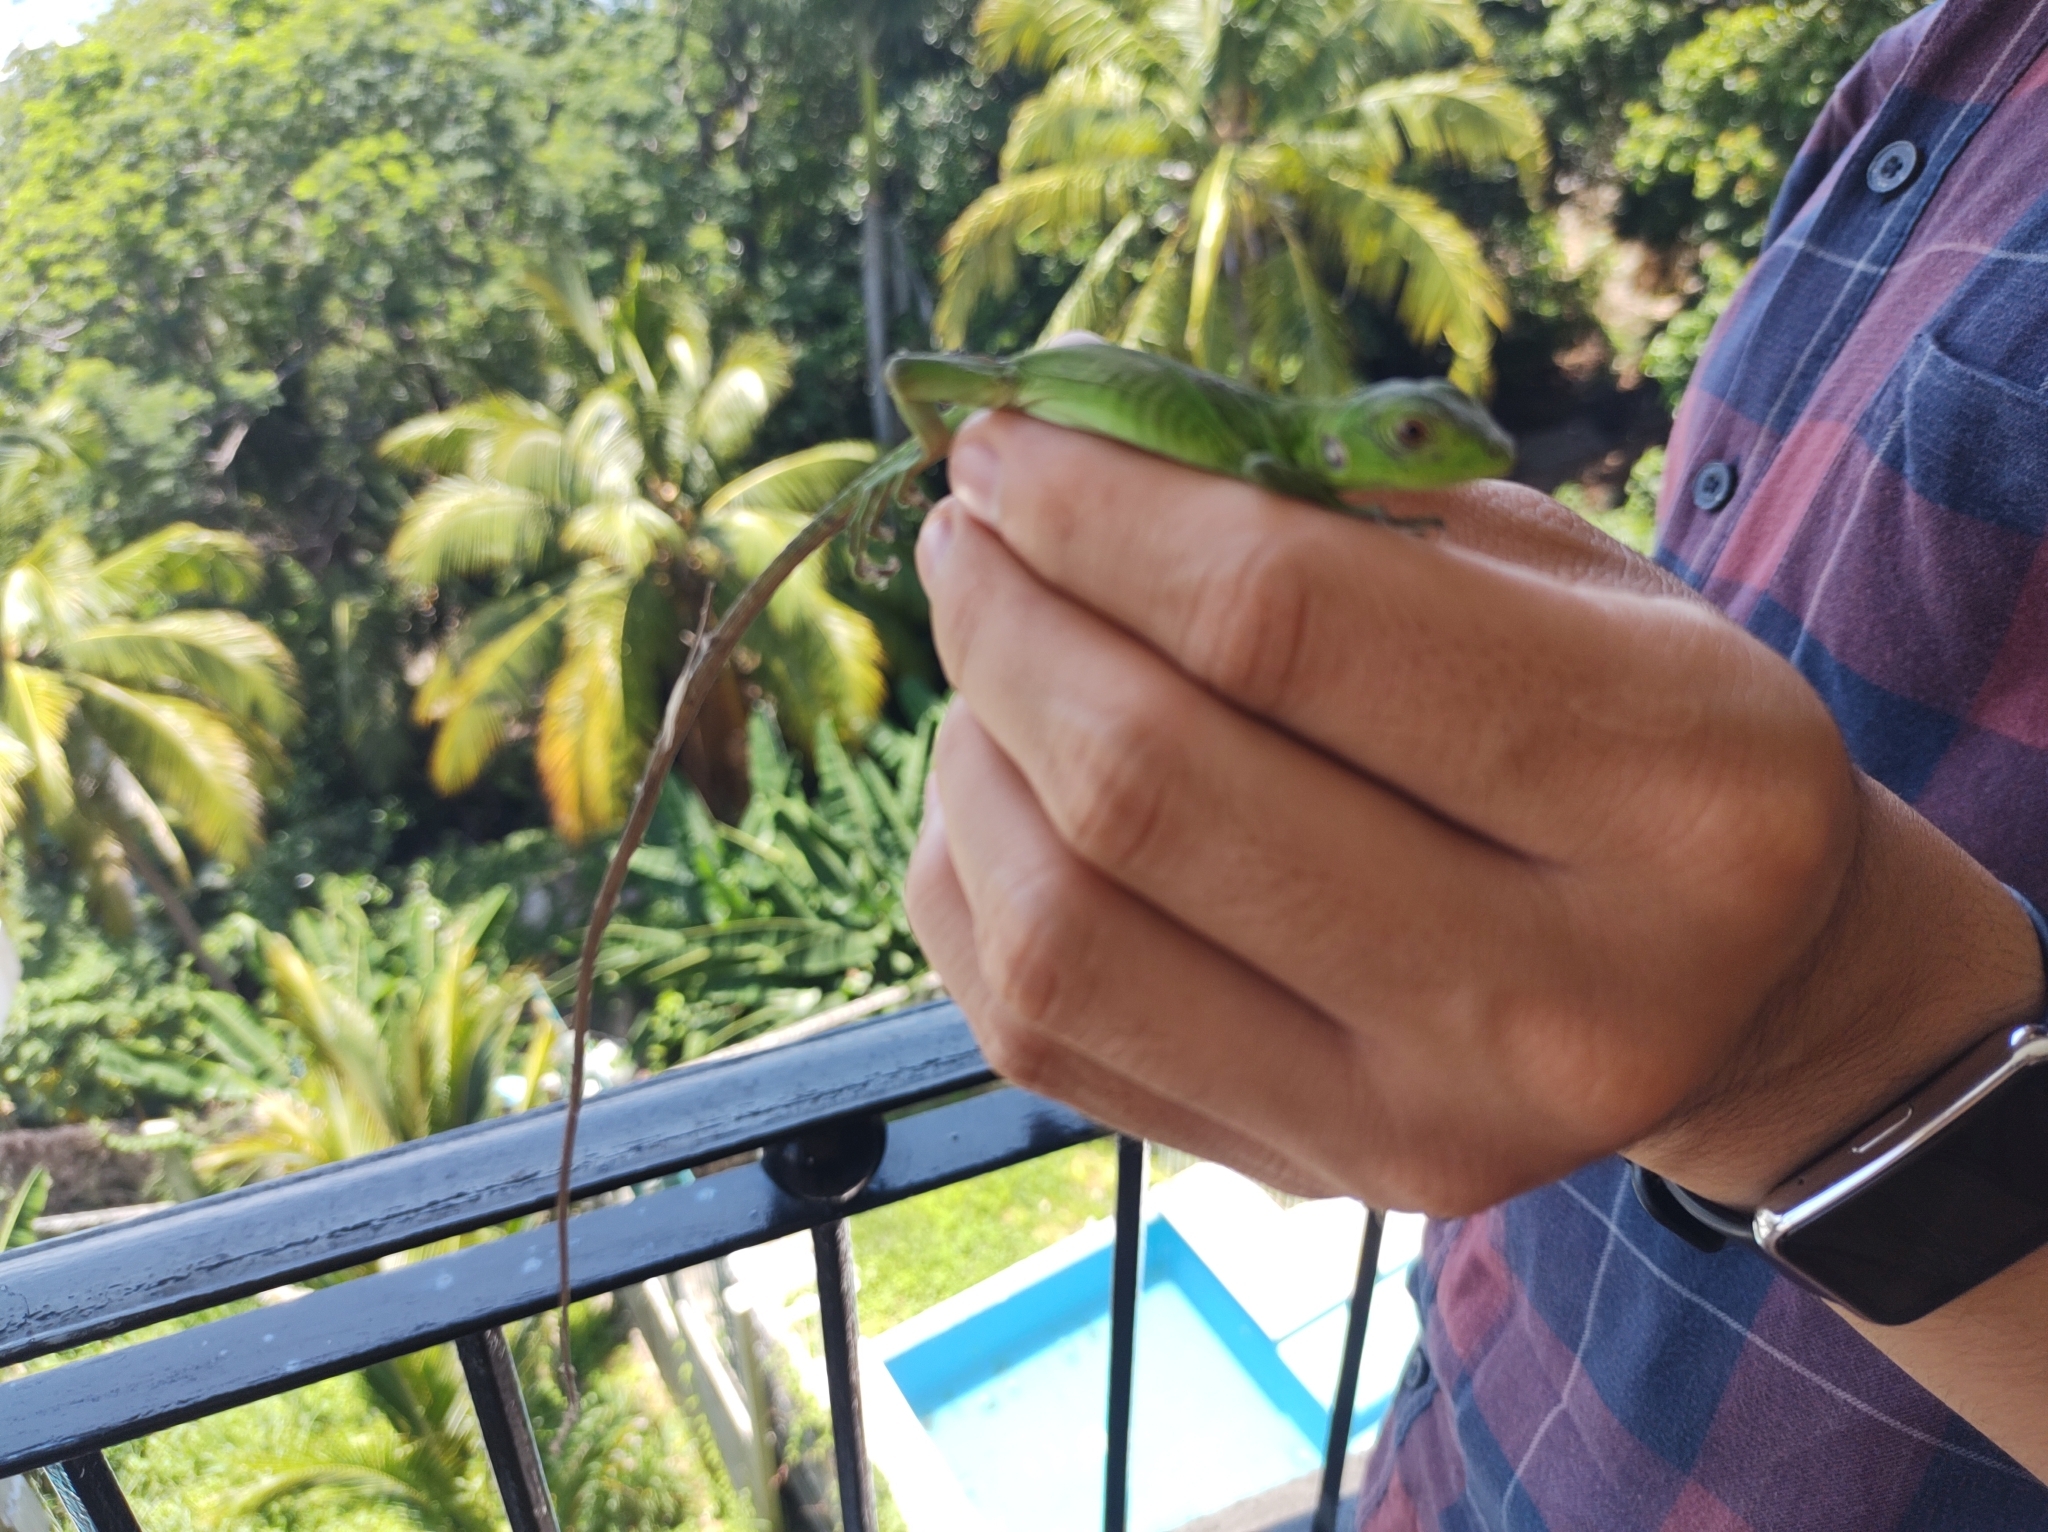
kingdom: Animalia
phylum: Chordata
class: Squamata
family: Iguanidae
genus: Ctenosaura
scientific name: Ctenosaura pectinata
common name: Guerreran spiny-tailed iguana
